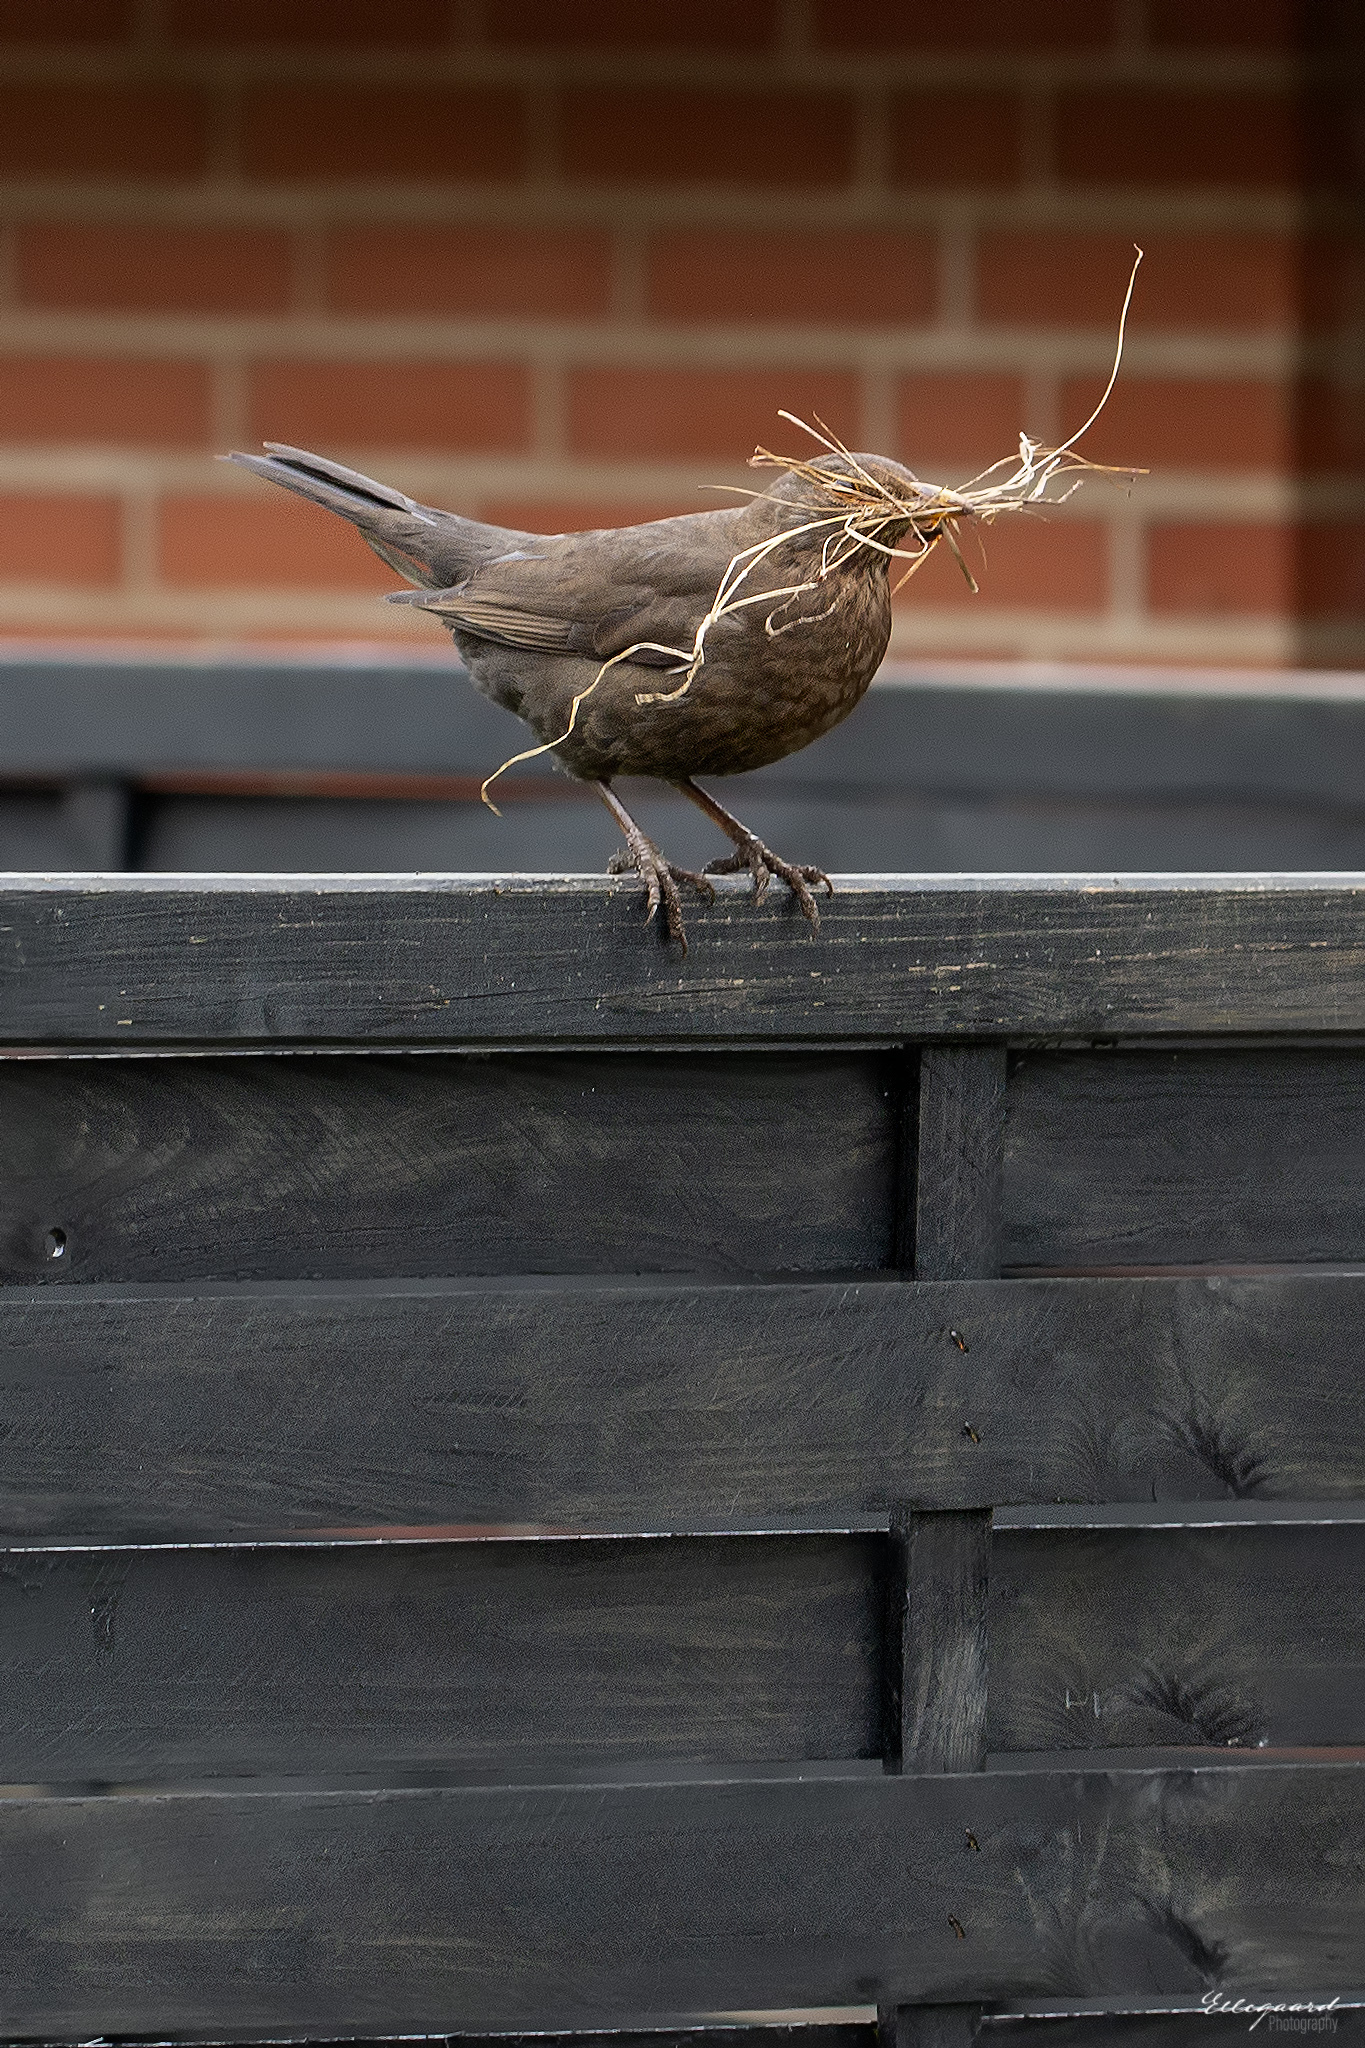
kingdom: Animalia
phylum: Chordata
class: Aves
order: Passeriformes
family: Turdidae
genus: Turdus
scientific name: Turdus merula
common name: Common blackbird
